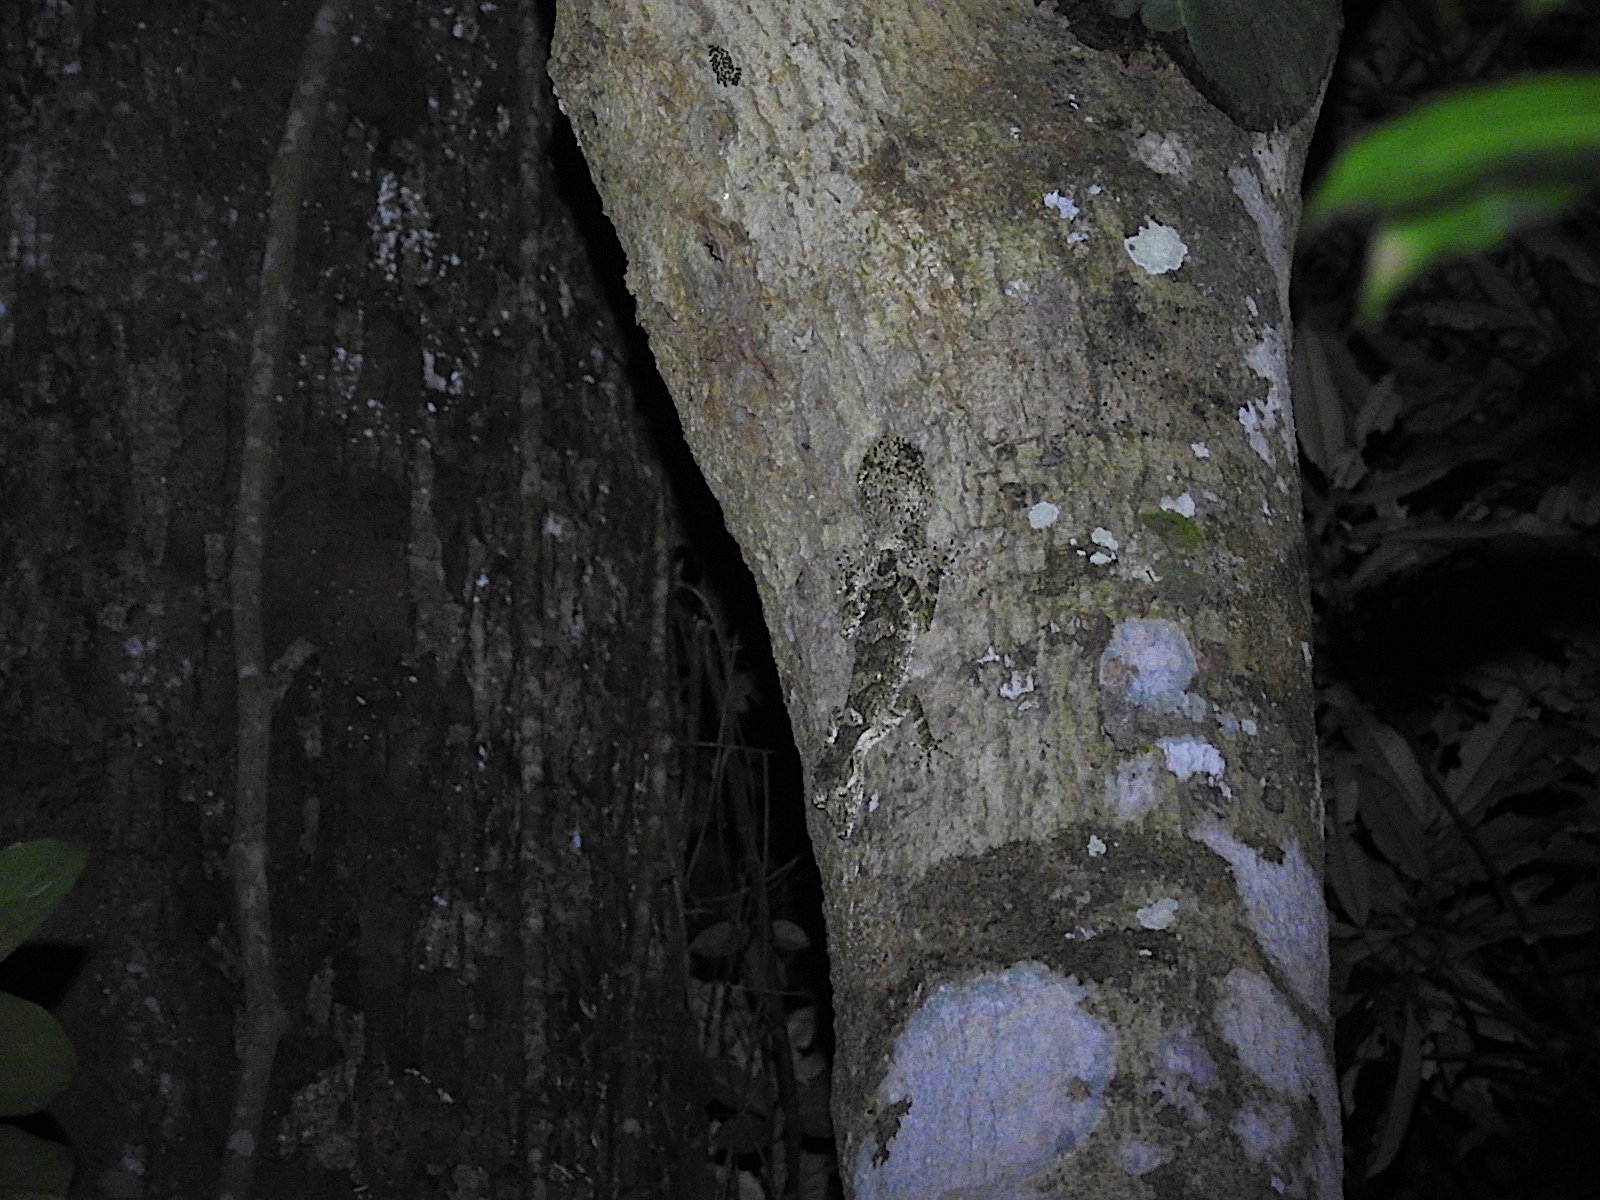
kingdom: Animalia
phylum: Chordata
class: Squamata
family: Carphodactylidae
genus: Saltuarius
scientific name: Saltuarius cornutus
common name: Leaf-tailed gecko
